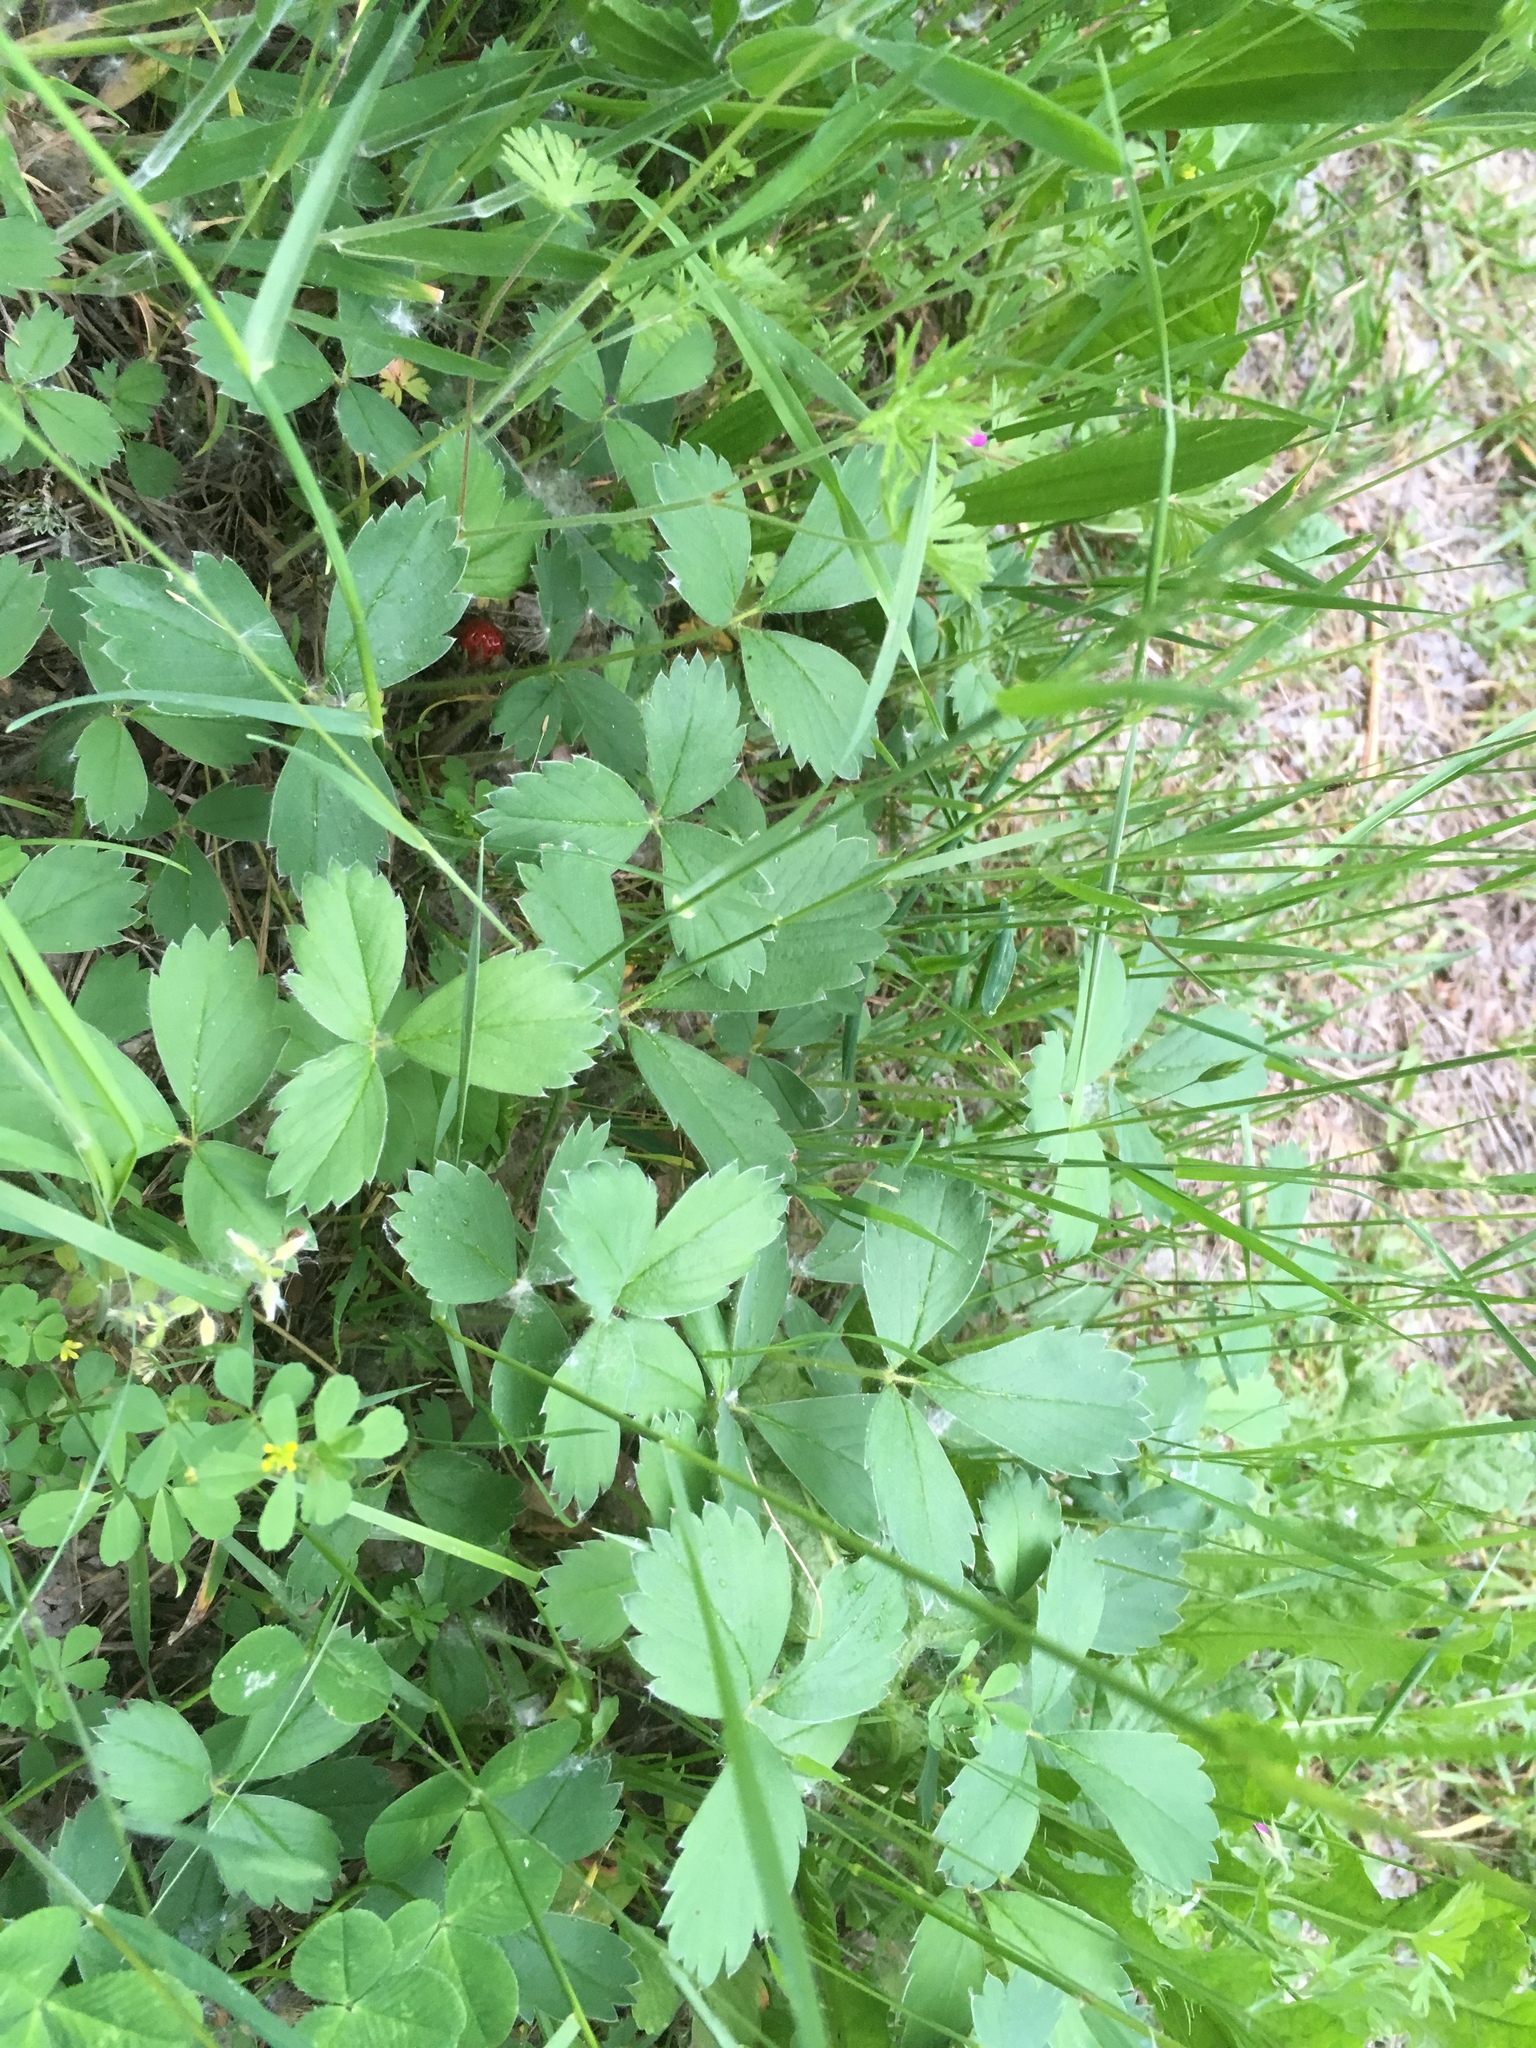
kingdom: Plantae
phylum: Tracheophyta
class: Magnoliopsida
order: Rosales
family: Rosaceae
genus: Fragaria
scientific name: Fragaria virginiana
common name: Thickleaved wild strawberry
